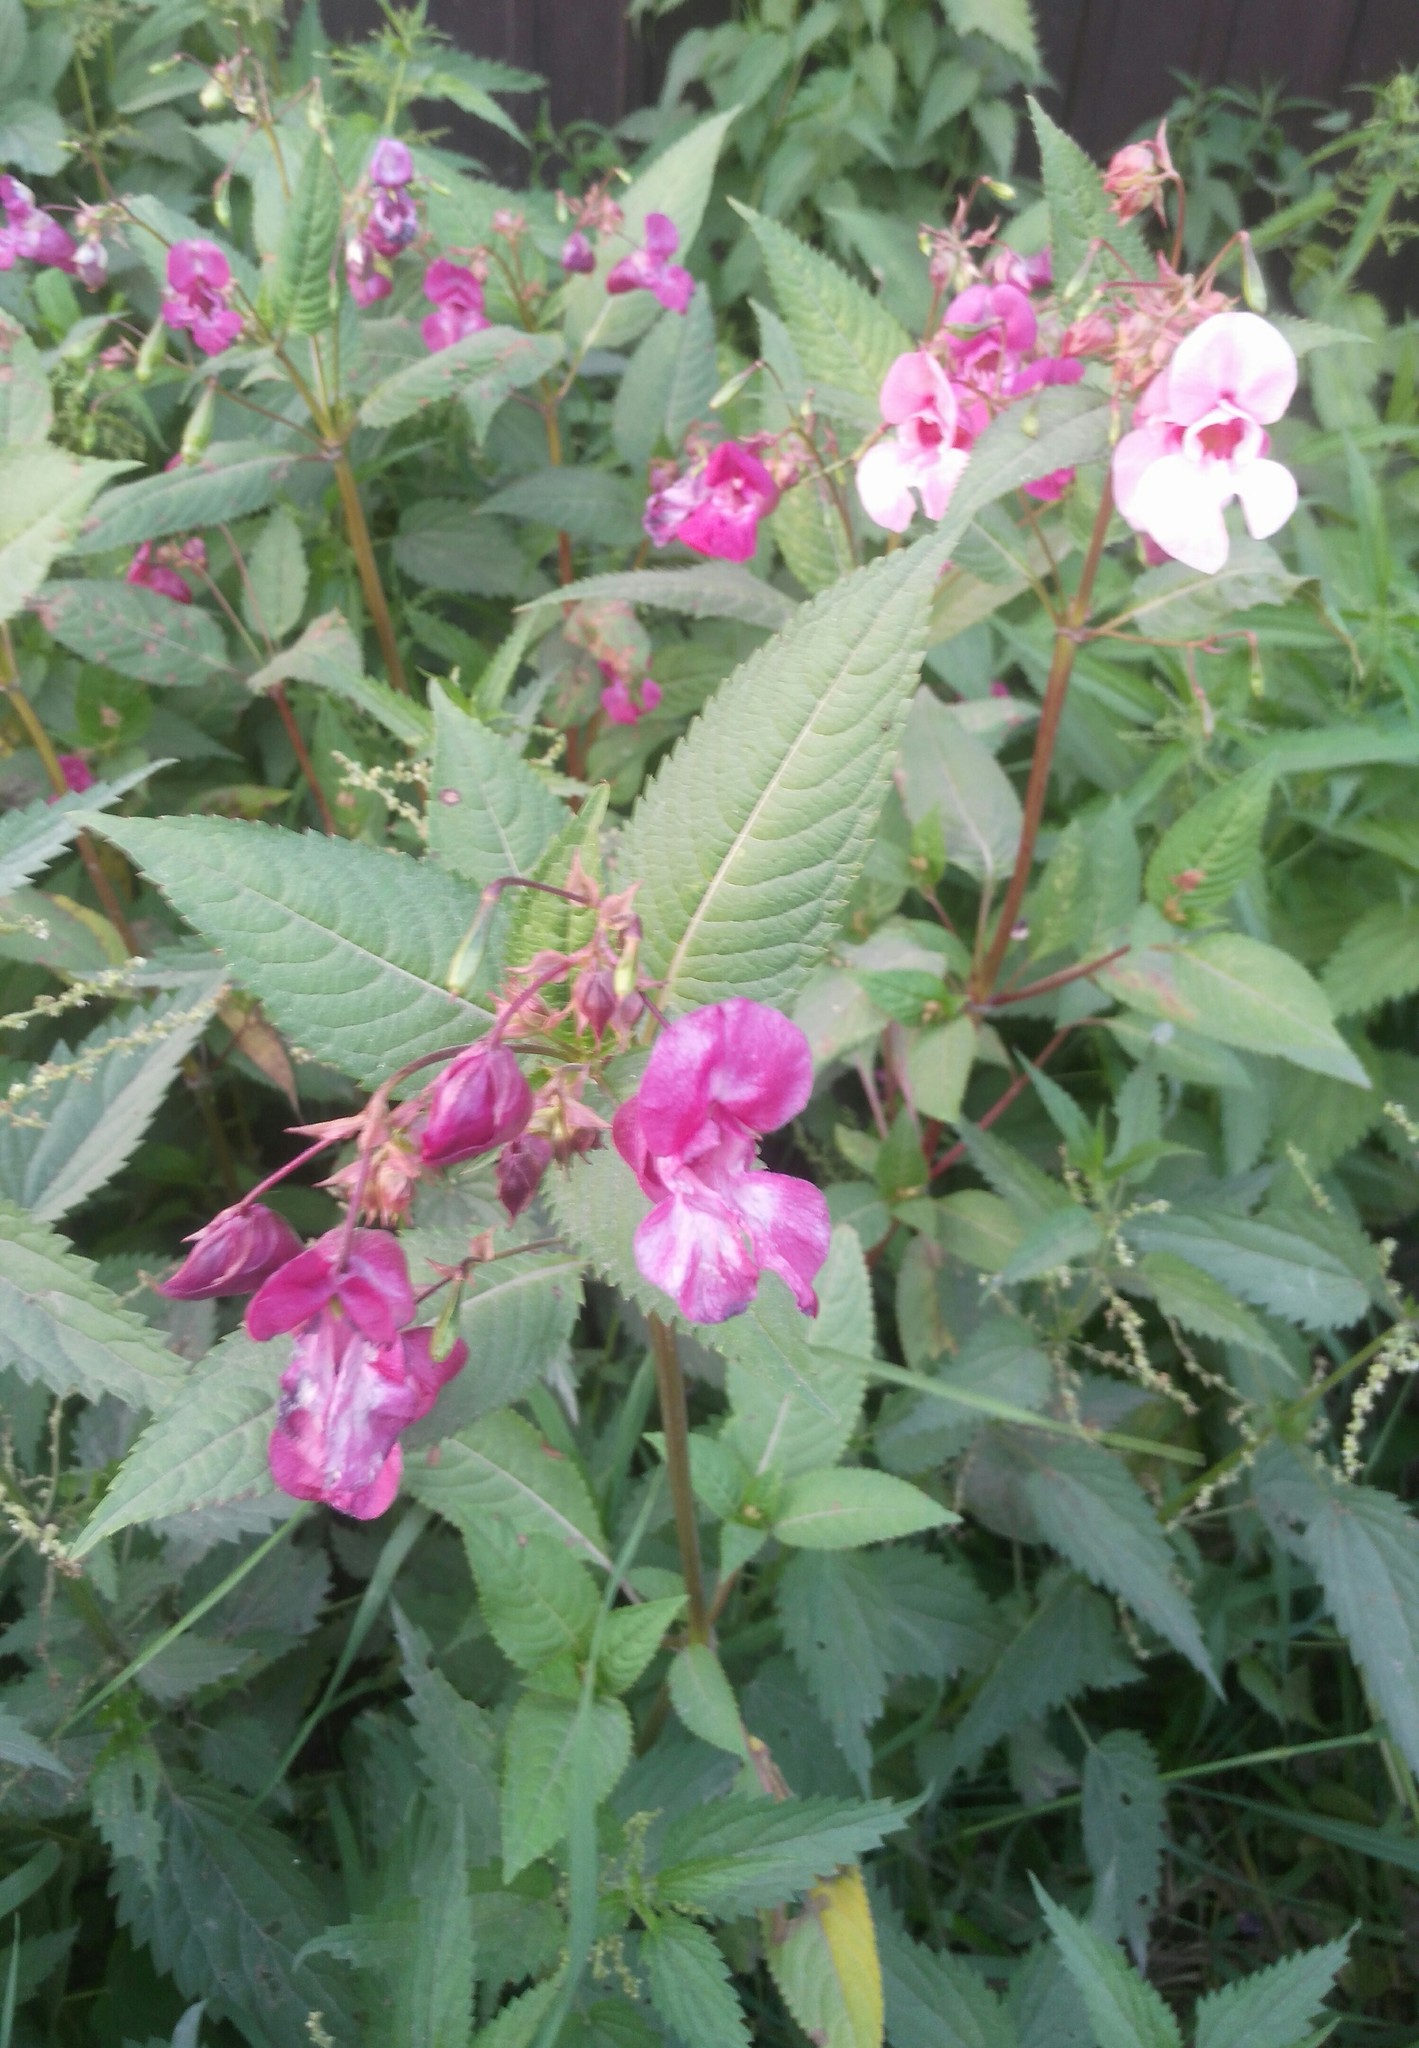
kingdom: Plantae
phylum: Tracheophyta
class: Magnoliopsida
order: Ericales
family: Balsaminaceae
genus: Impatiens
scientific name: Impatiens glandulifera
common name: Himalayan balsam
